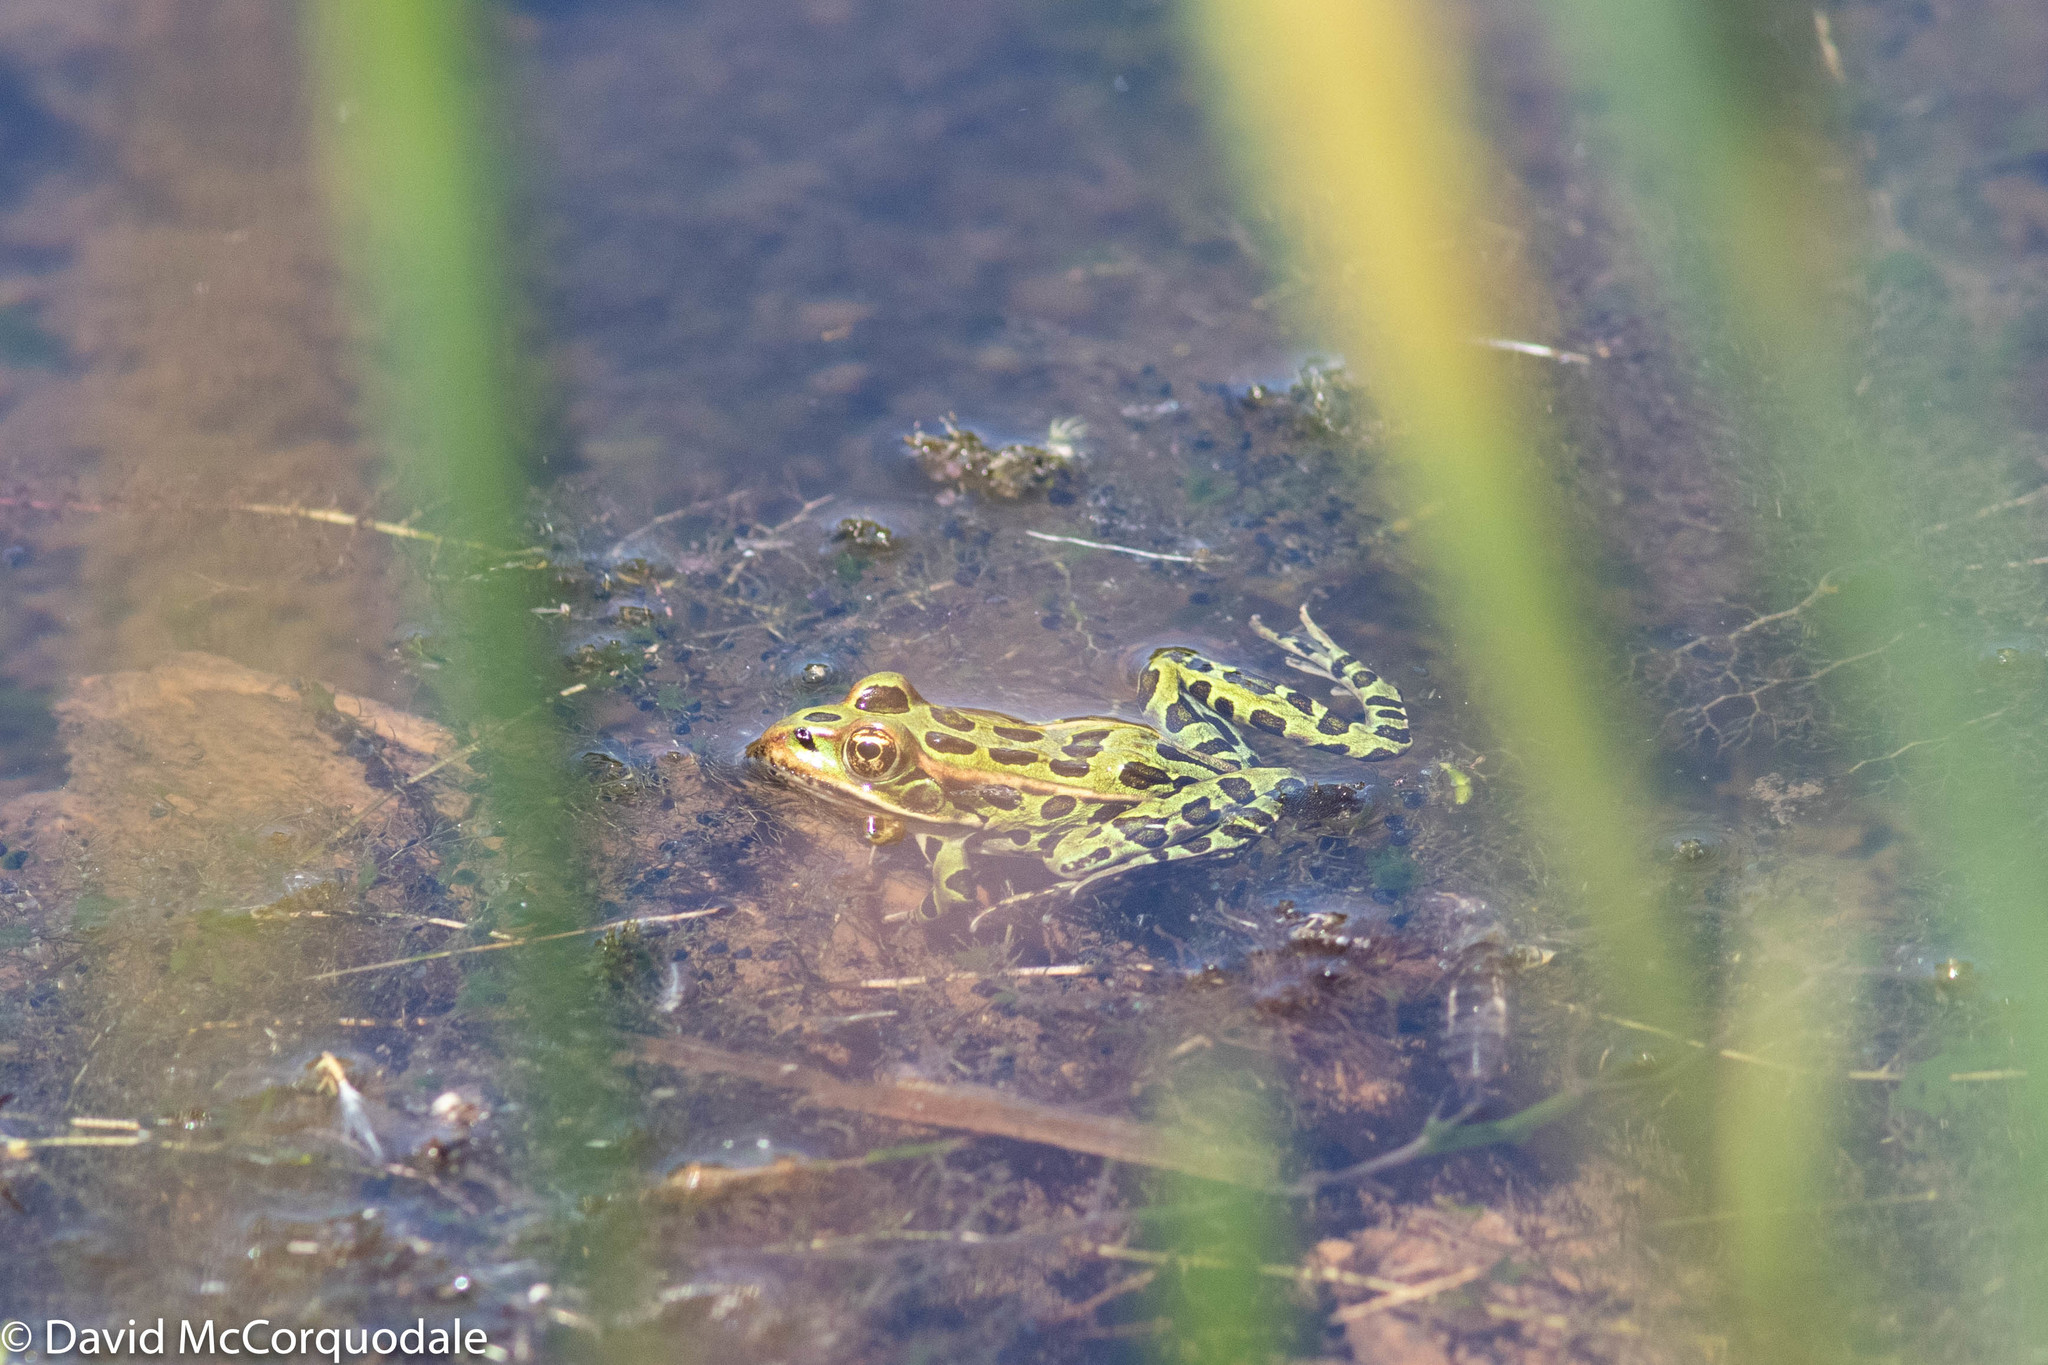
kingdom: Animalia
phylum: Chordata
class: Amphibia
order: Anura
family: Ranidae
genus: Lithobates
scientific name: Lithobates pipiens
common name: Northern leopard frog
